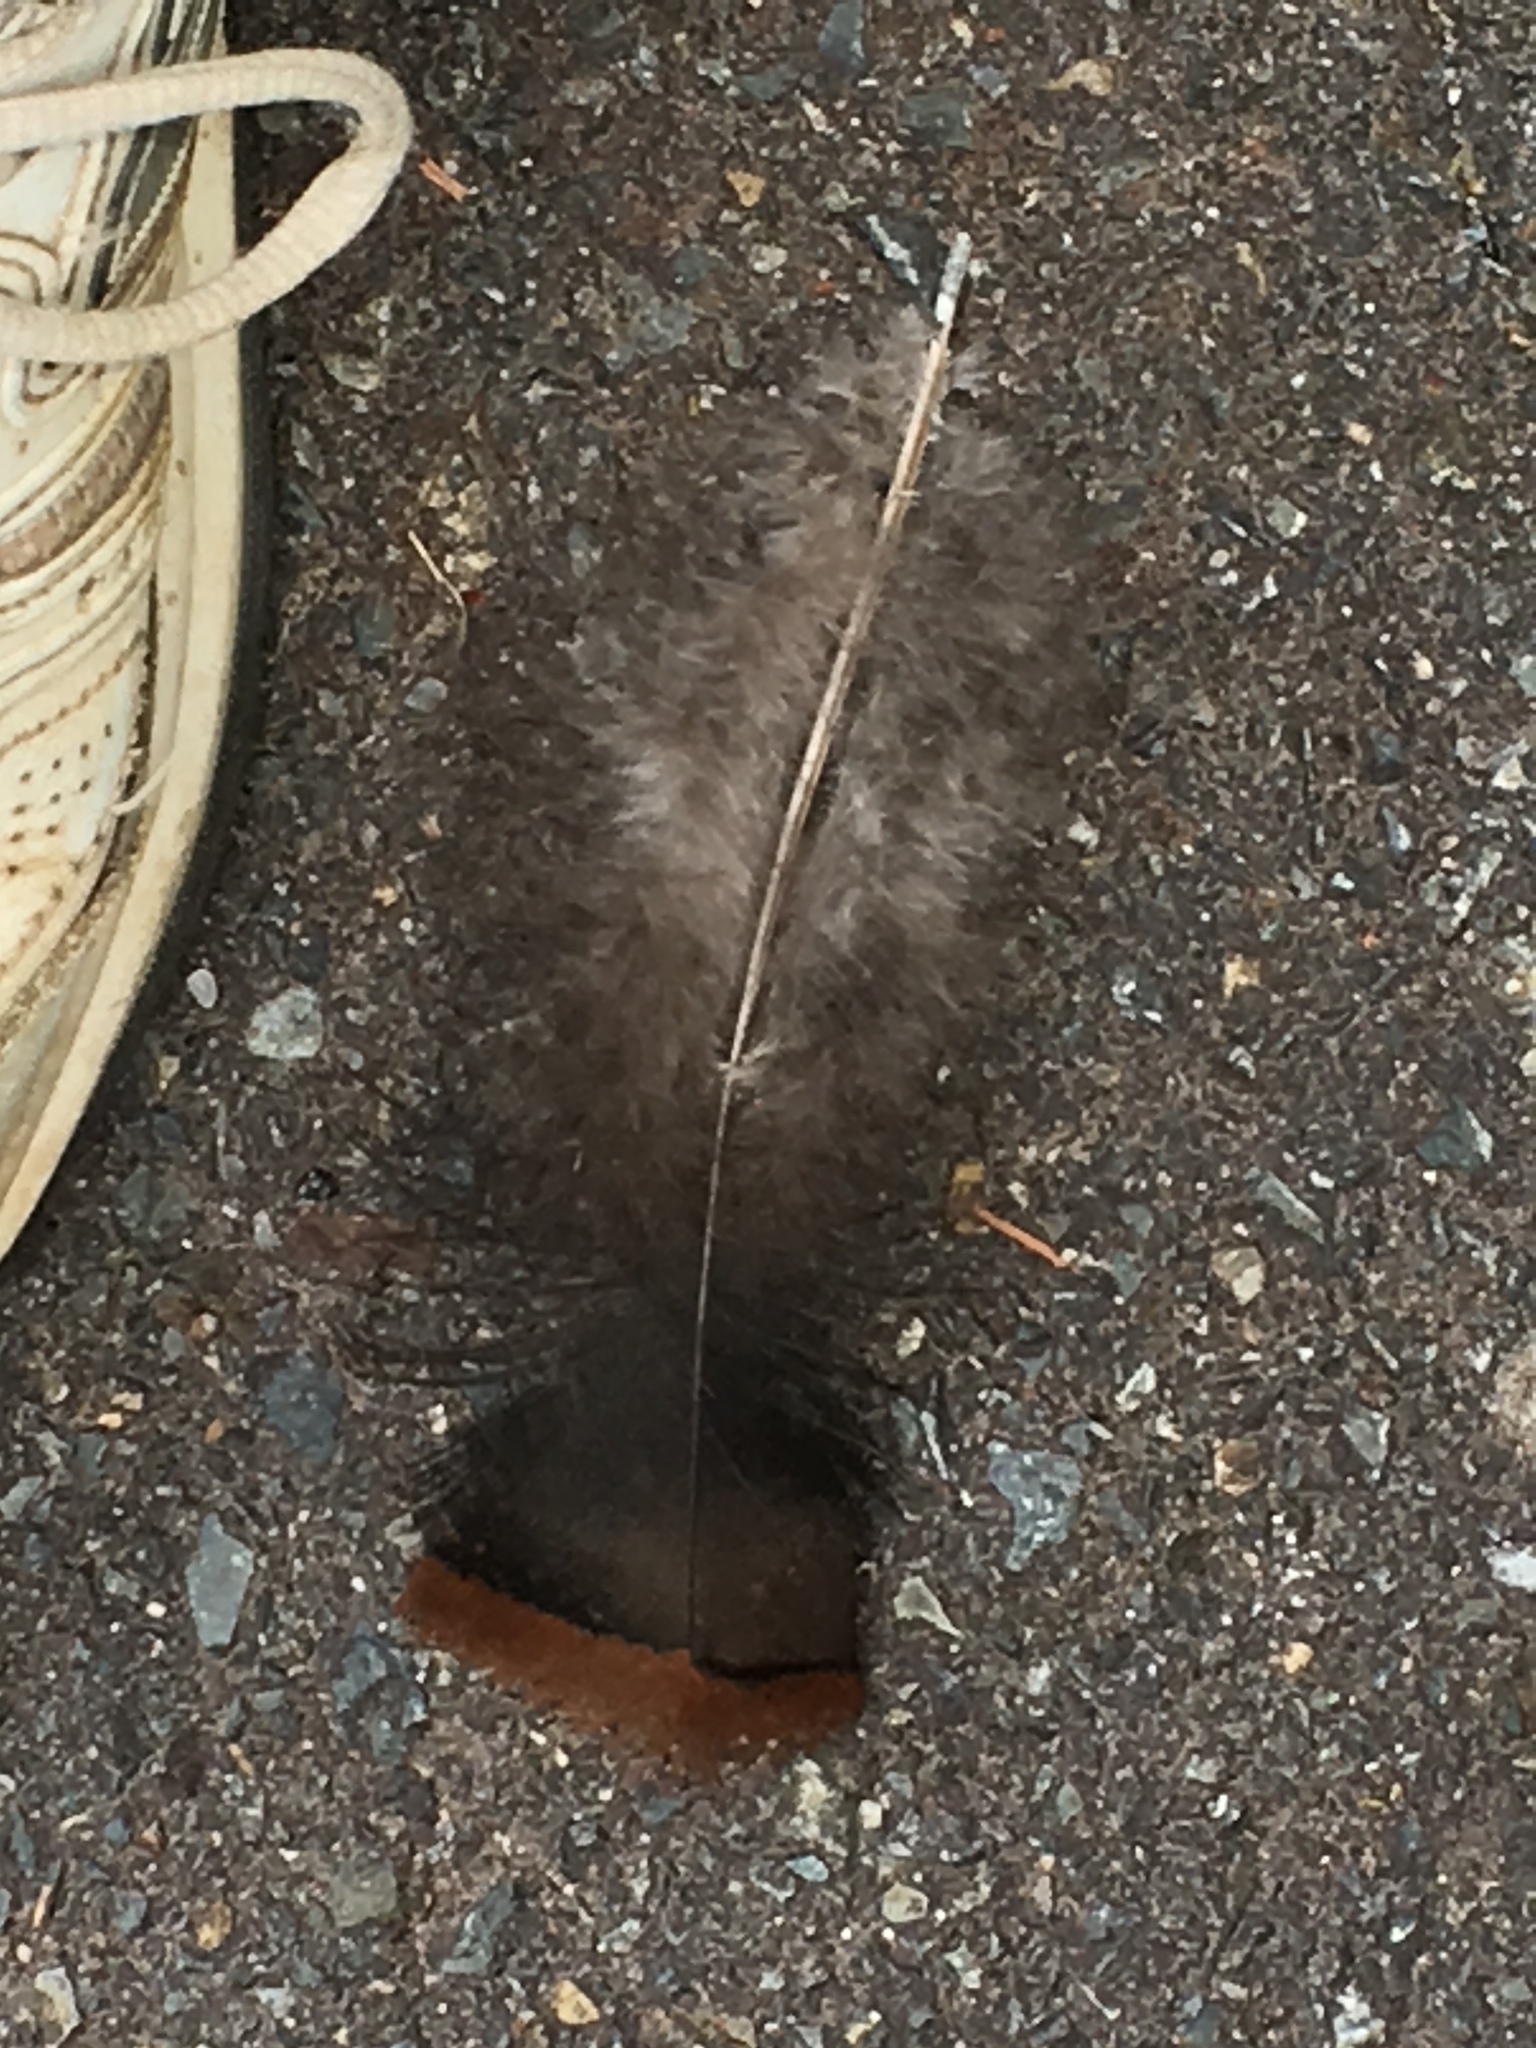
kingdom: Animalia
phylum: Chordata
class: Aves
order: Galliformes
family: Phasianidae
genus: Meleagris
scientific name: Meleagris gallopavo
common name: Wild turkey
